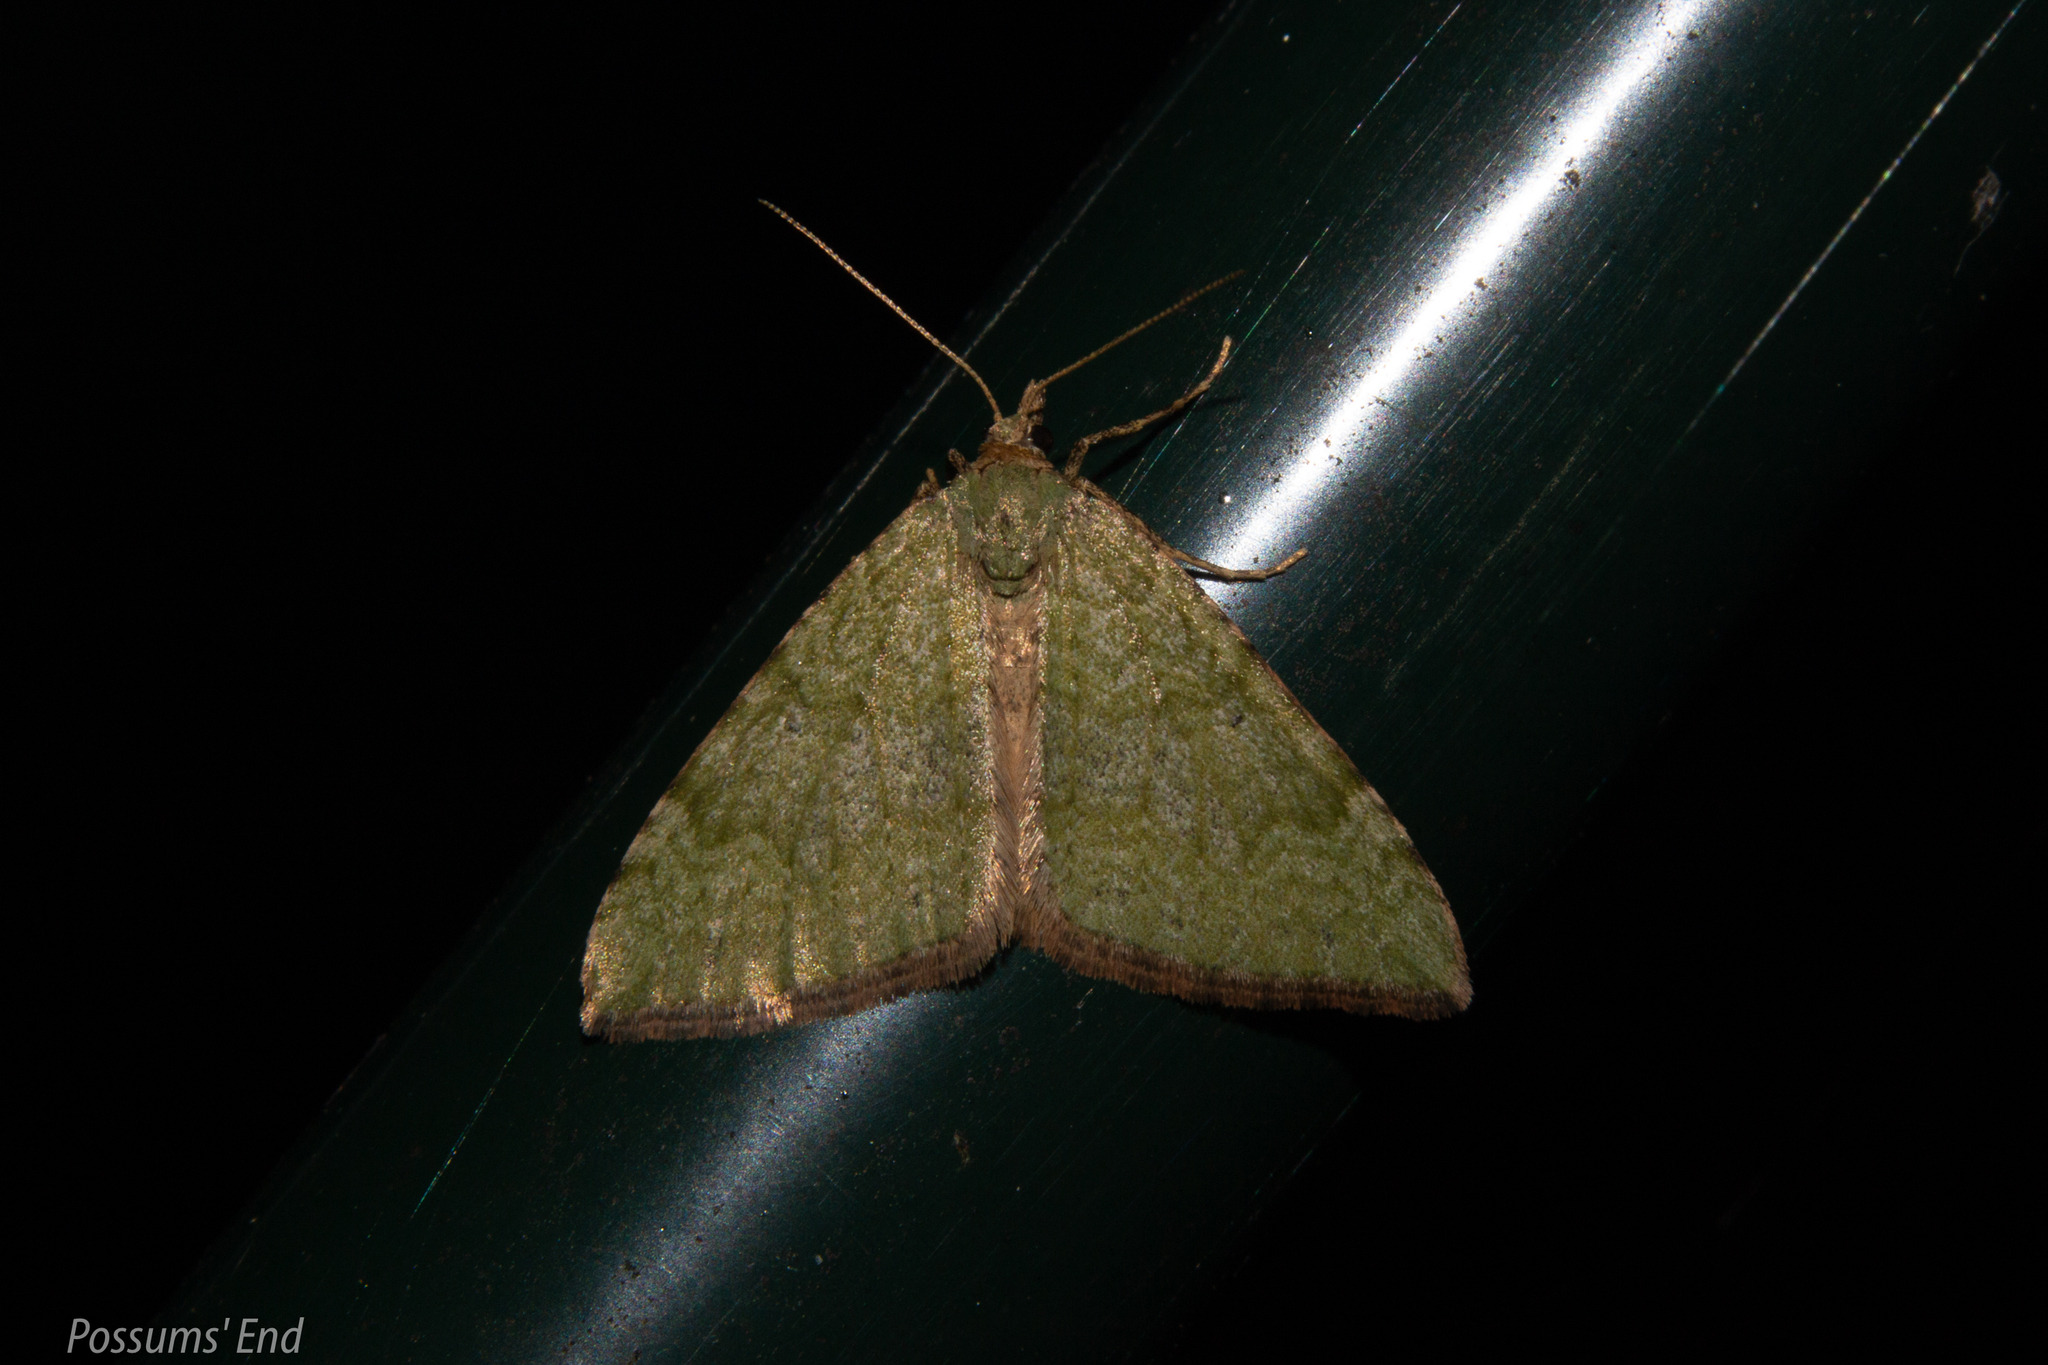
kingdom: Animalia
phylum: Arthropoda
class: Insecta
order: Lepidoptera
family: Geometridae
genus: Epyaxa
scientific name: Epyaxa rosearia
